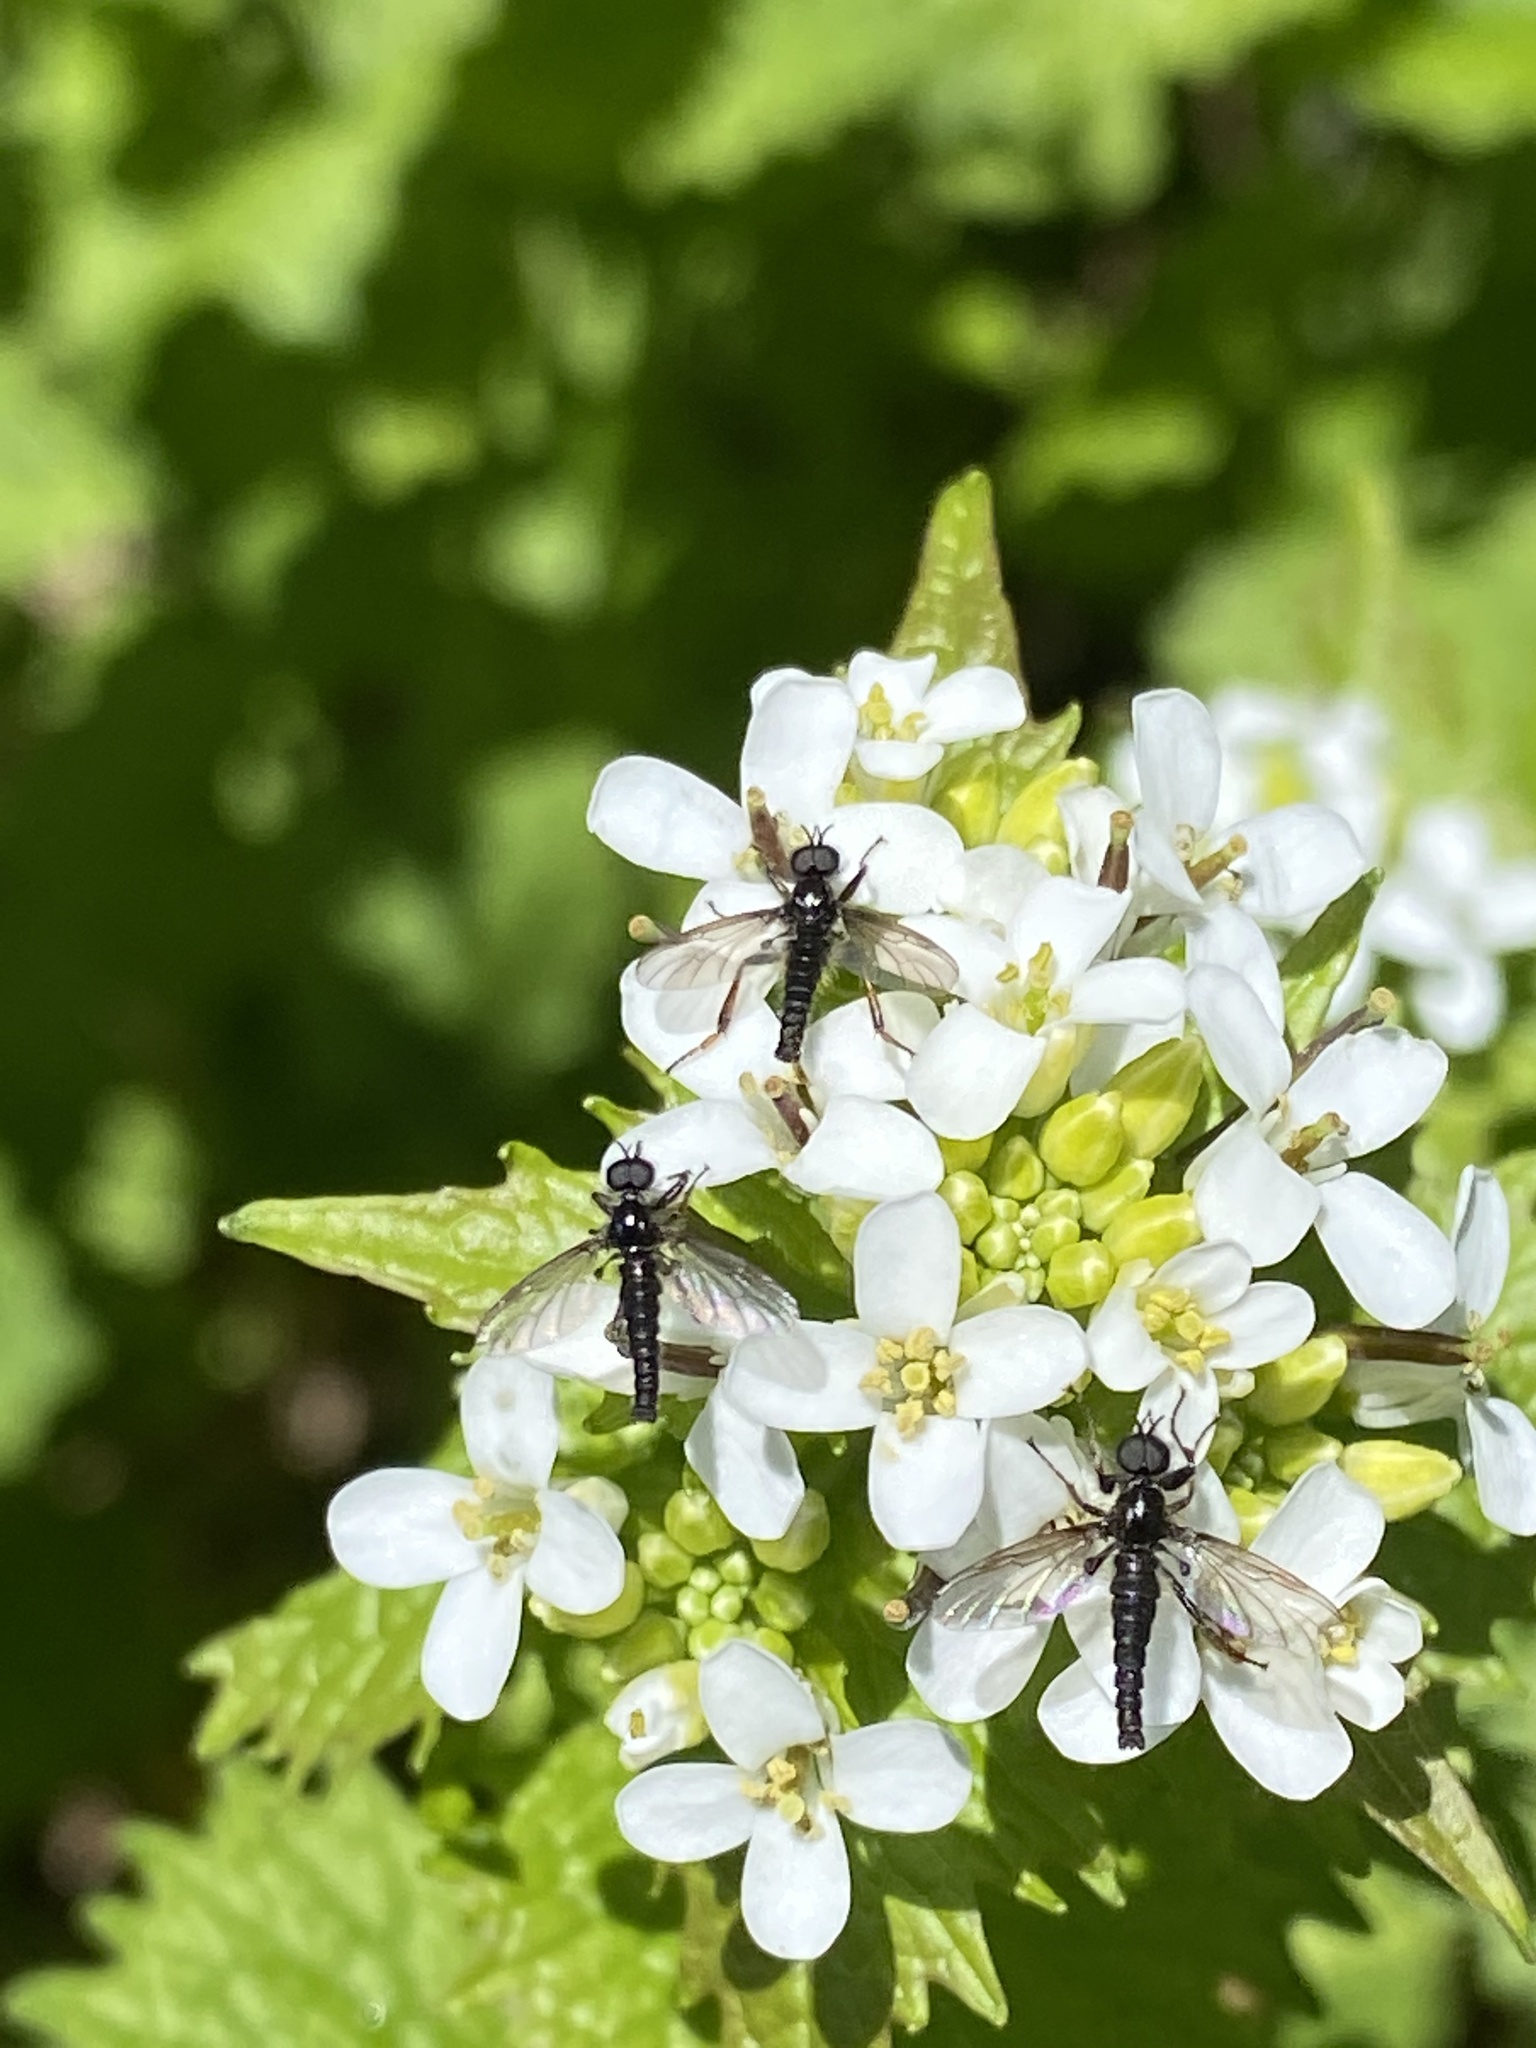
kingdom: Animalia
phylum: Arthropoda
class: Insecta
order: Diptera
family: Bibionidae
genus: Bibio
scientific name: Bibio lanigerus
